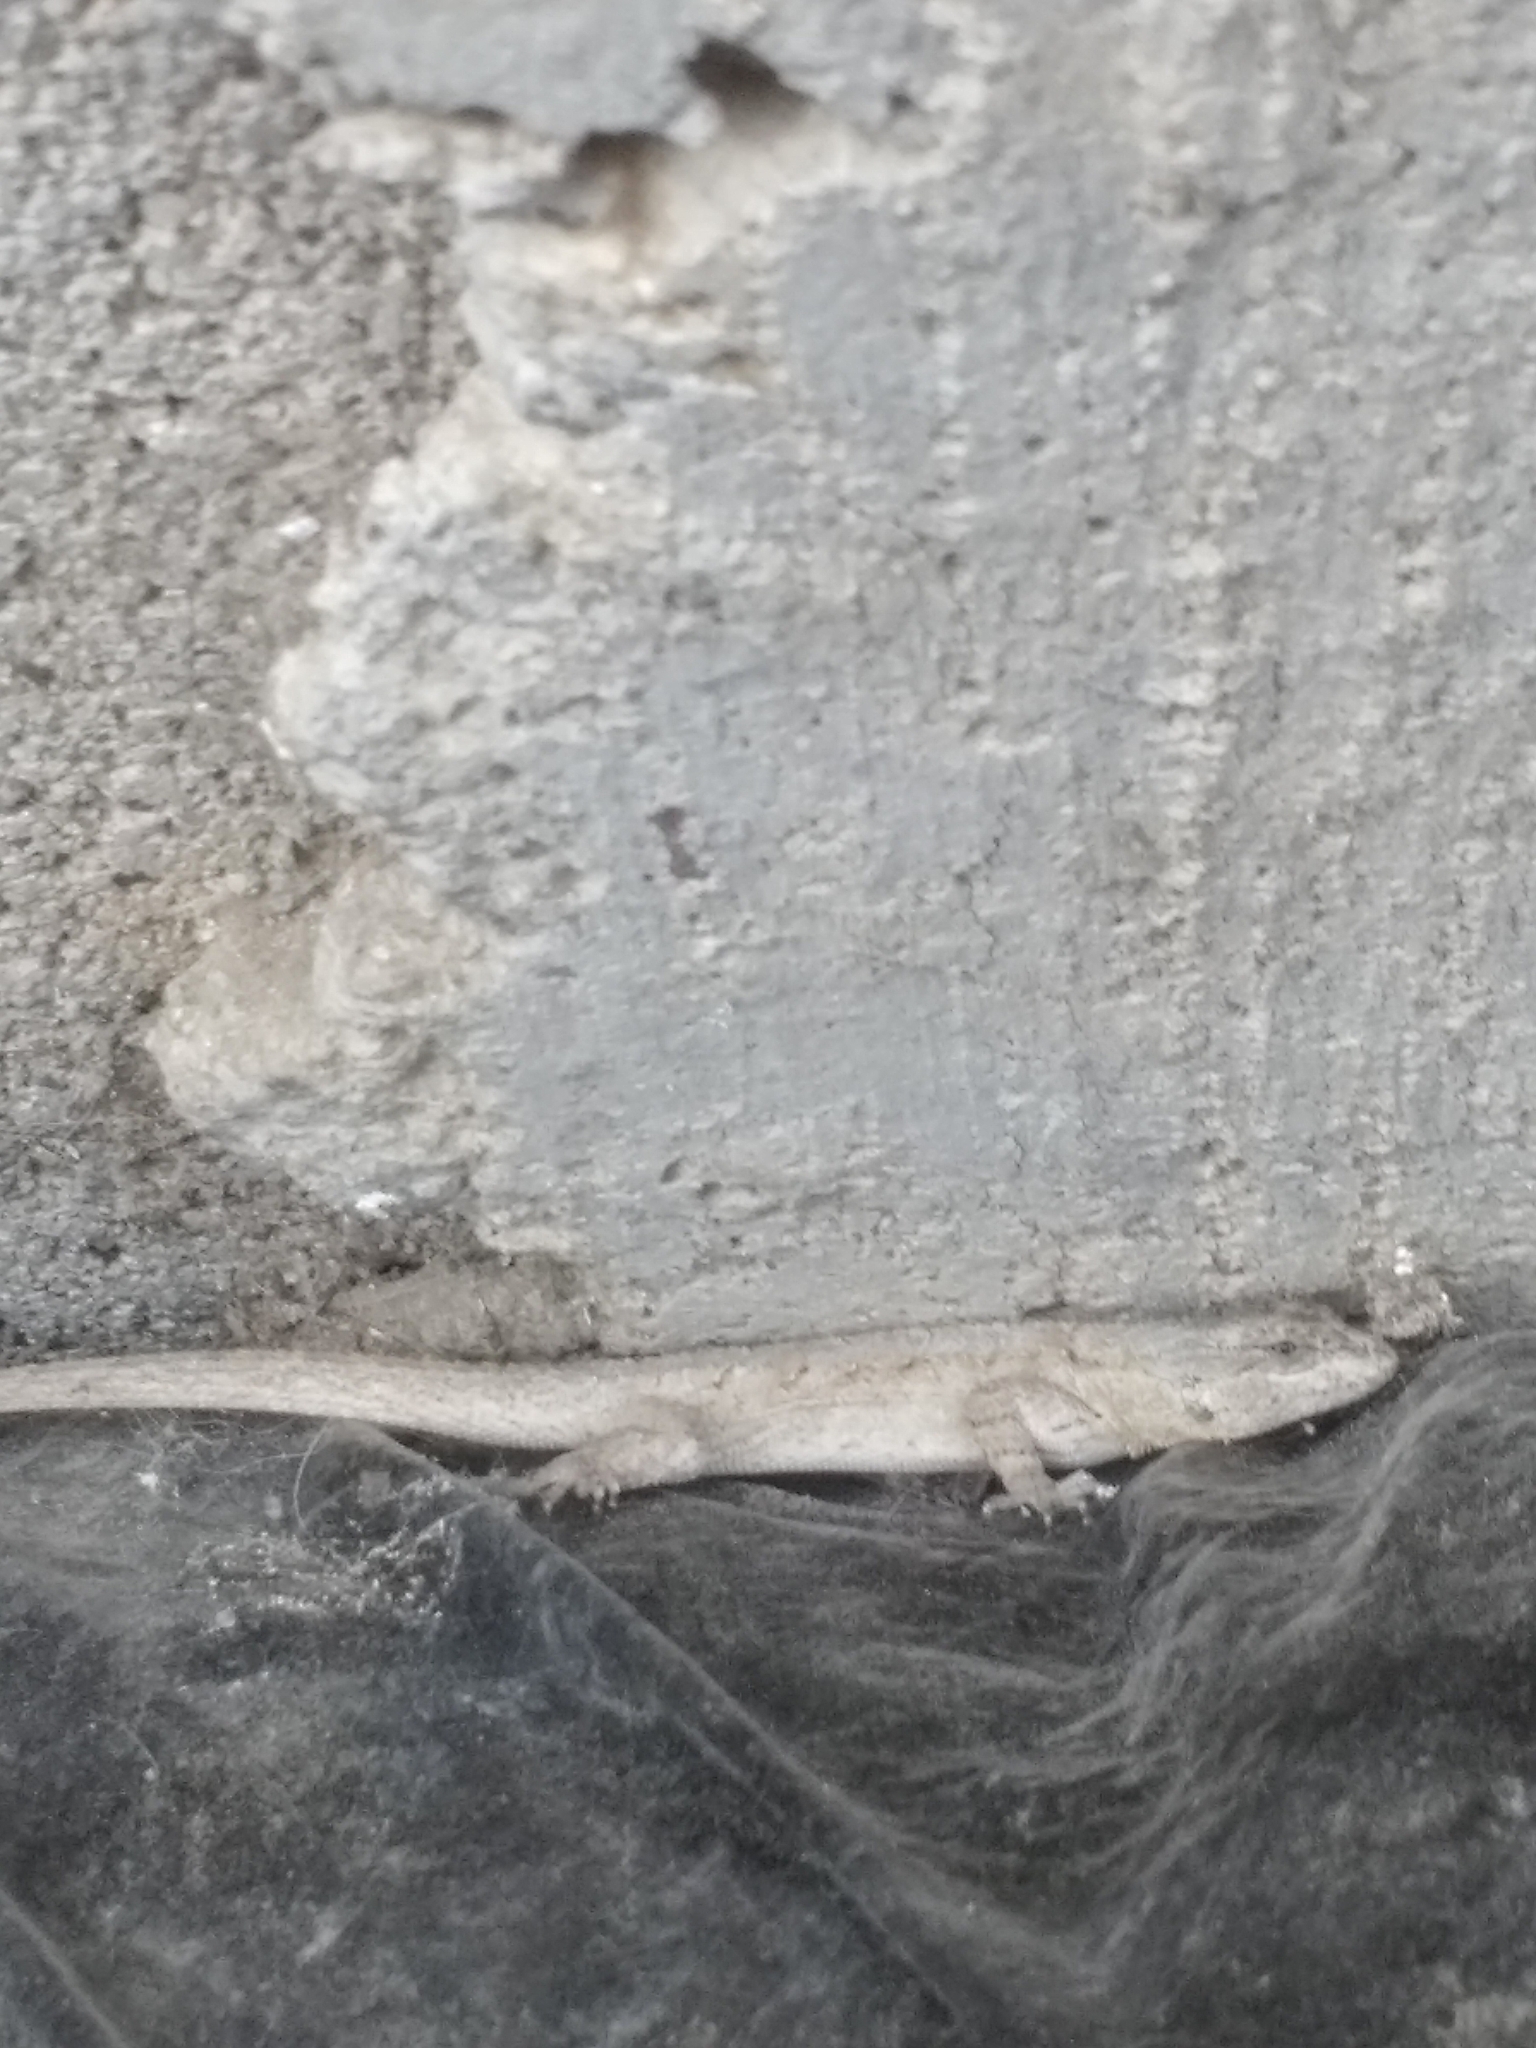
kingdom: Animalia
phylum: Chordata
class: Squamata
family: Phrynosomatidae
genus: Urosaurus
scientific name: Urosaurus ornatus
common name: Ornate tree lizard
